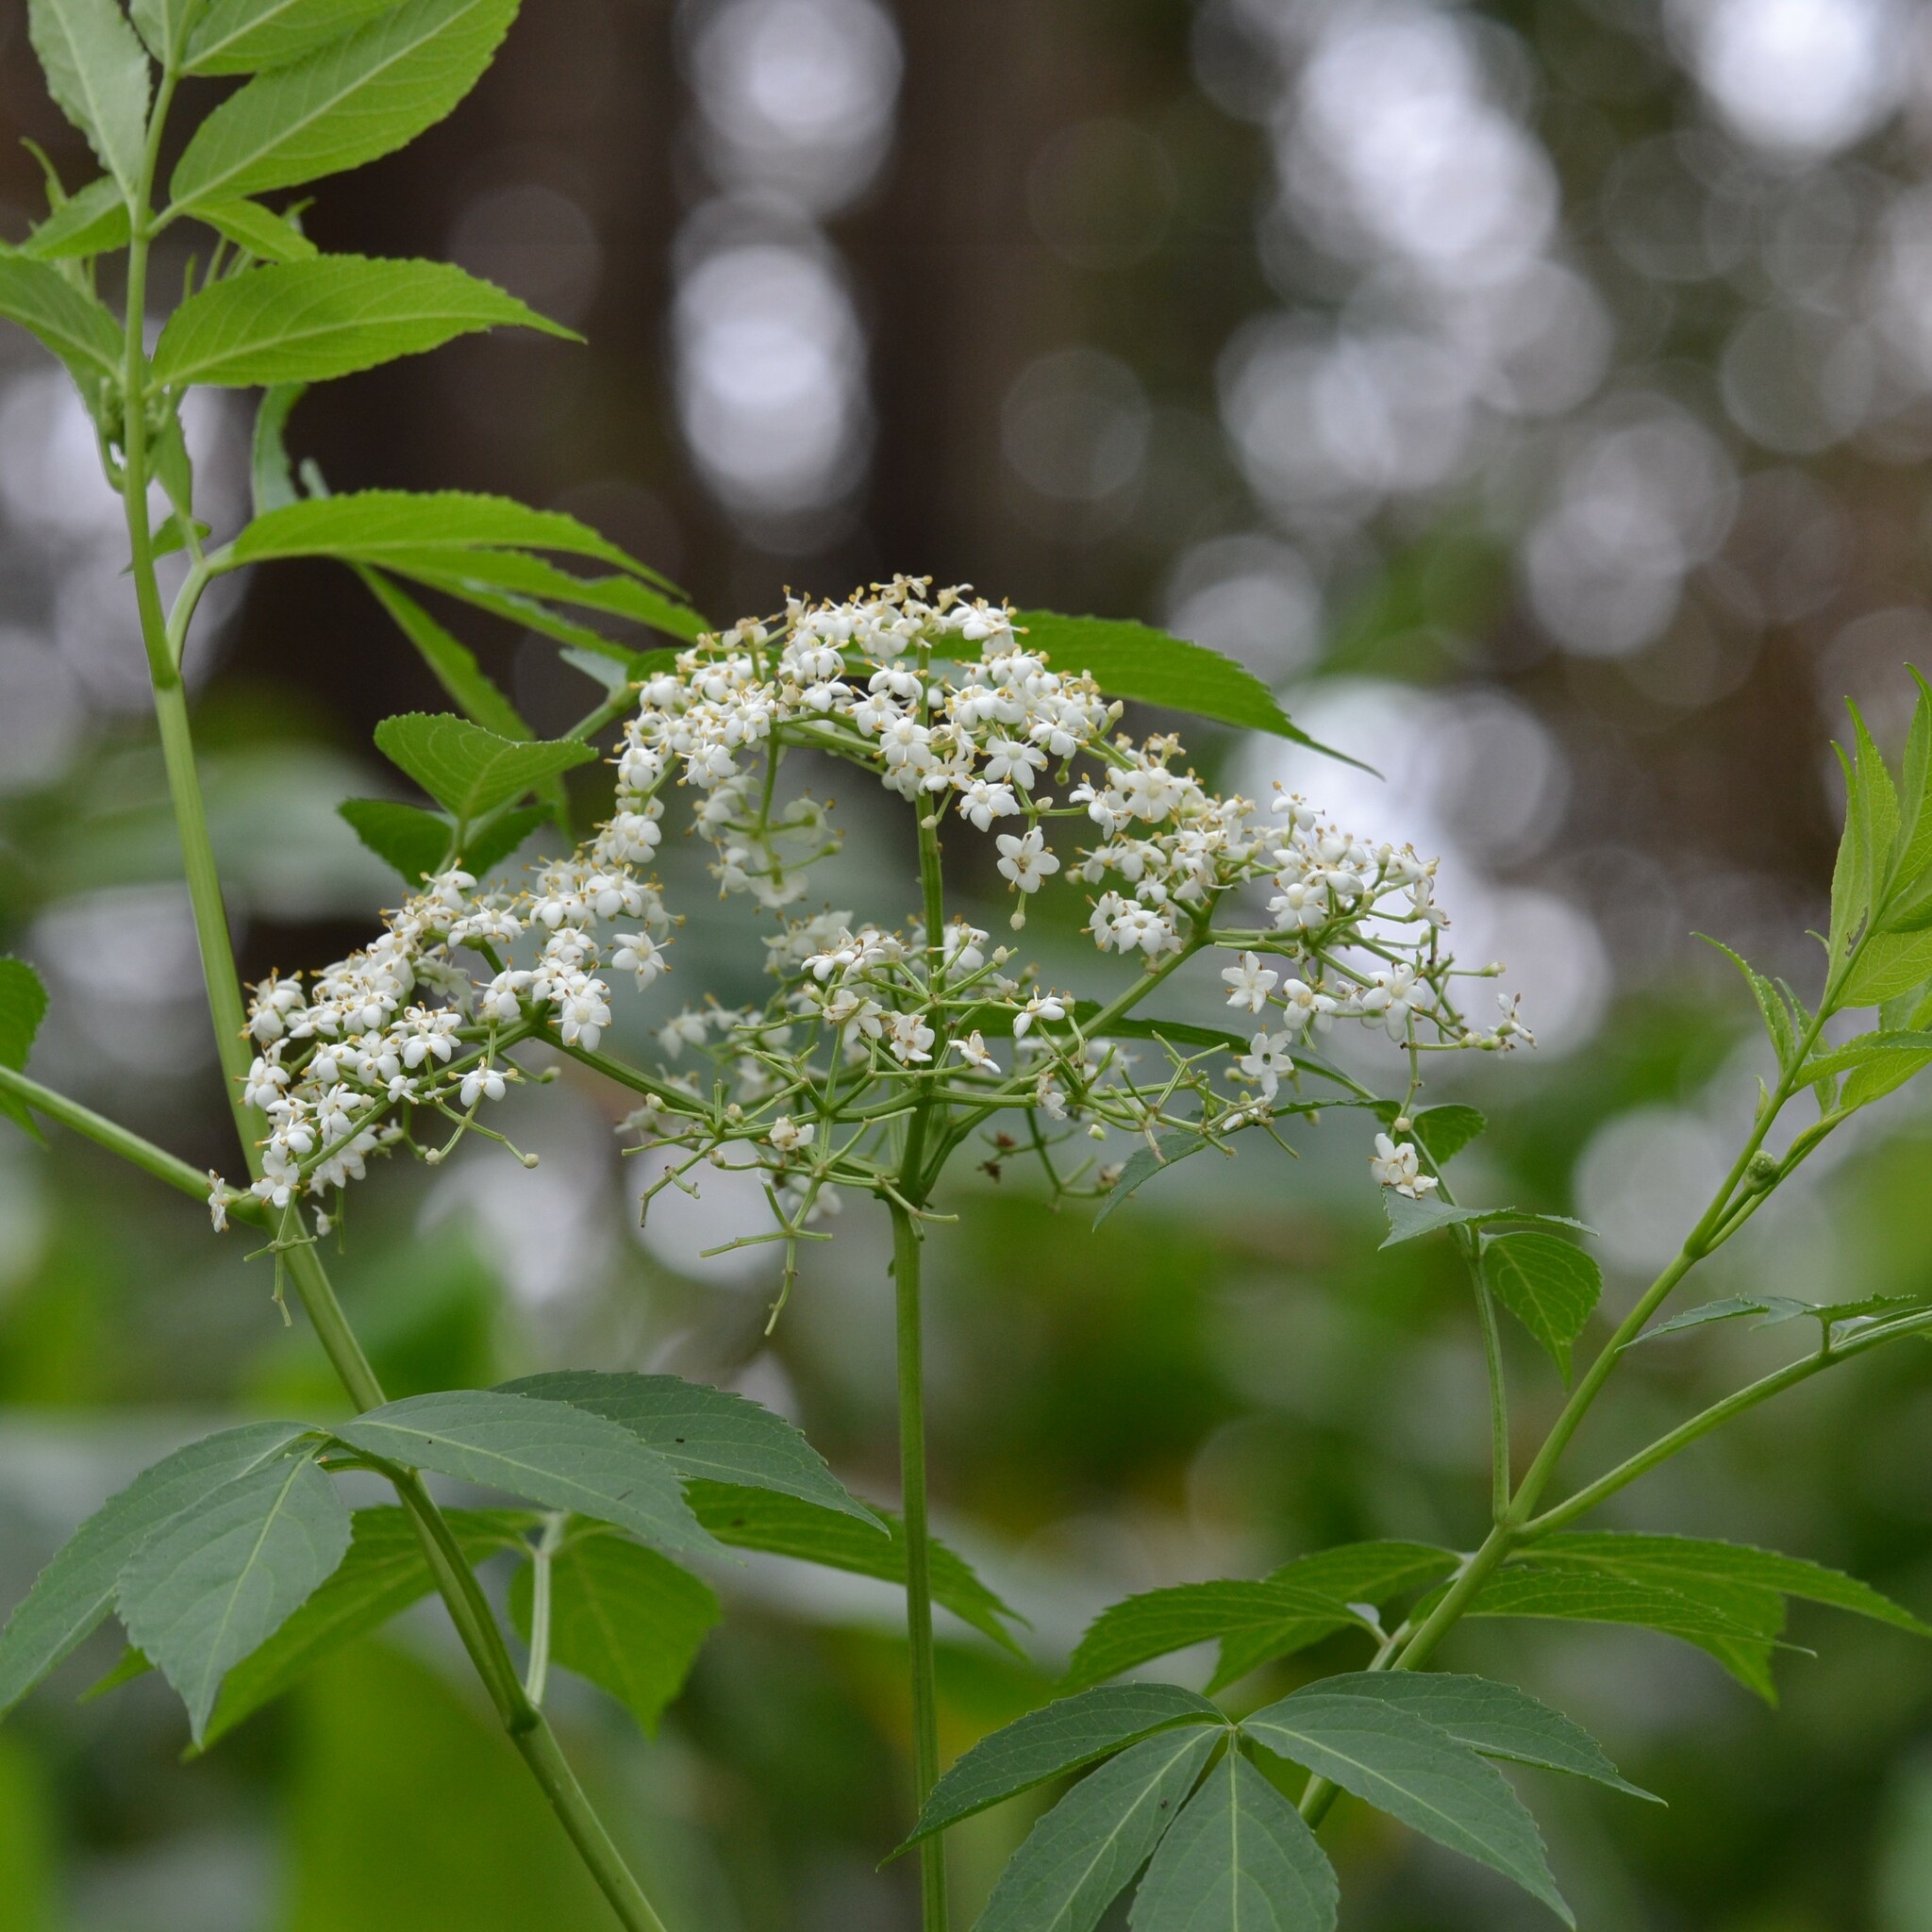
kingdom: Plantae
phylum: Tracheophyta
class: Magnoliopsida
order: Dipsacales
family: Viburnaceae
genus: Sambucus
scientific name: Sambucus cerulea
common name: Blue elder
